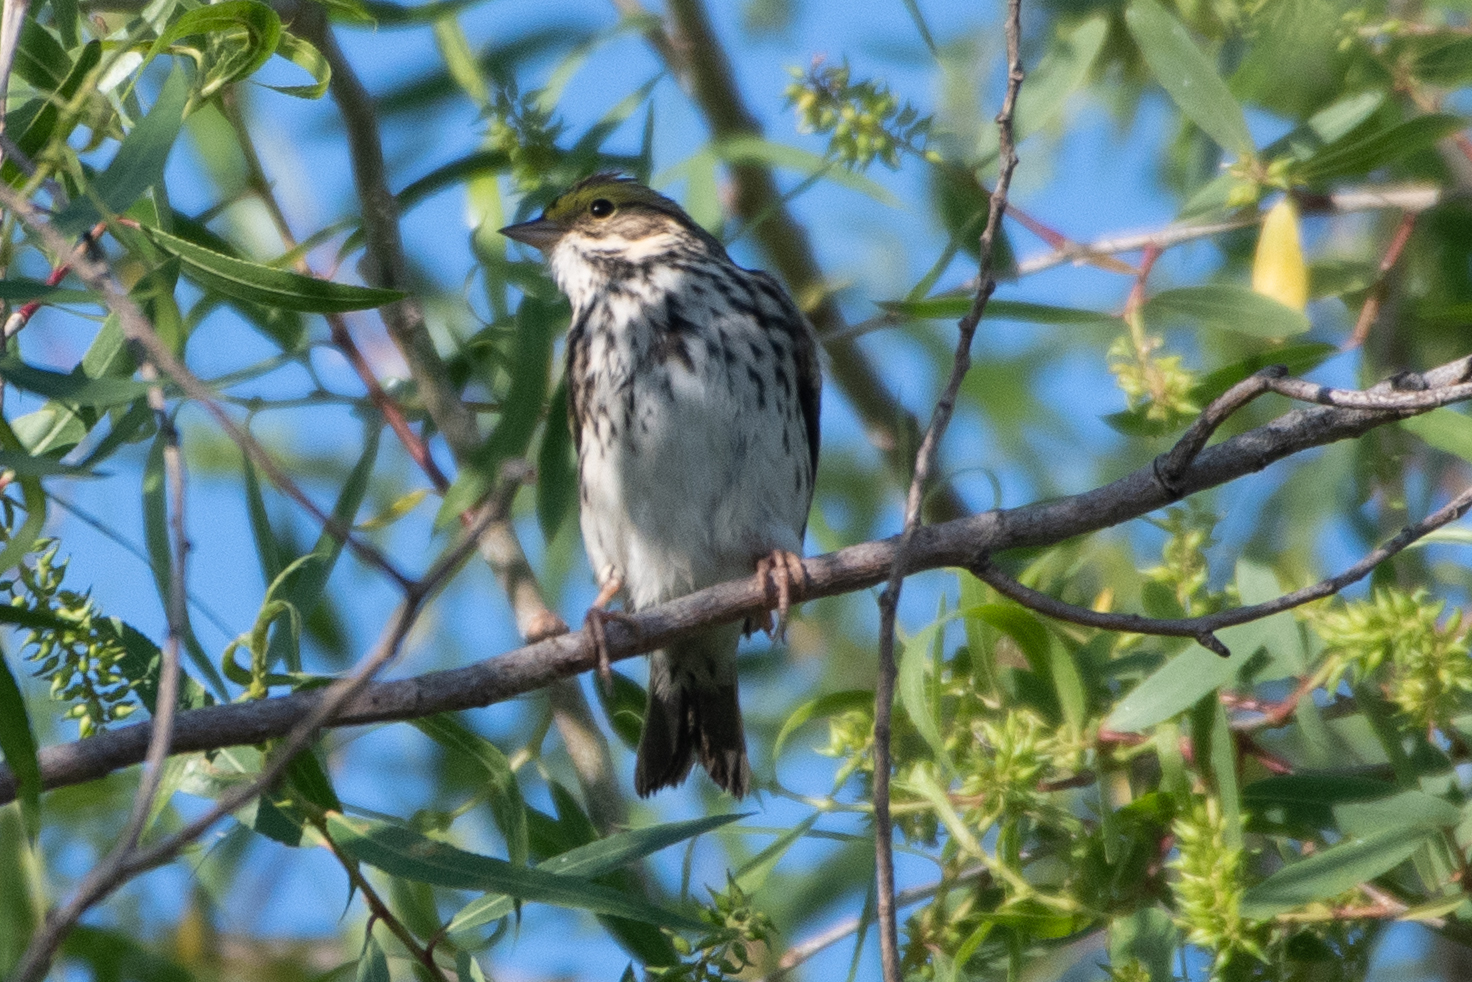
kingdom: Animalia
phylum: Chordata
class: Aves
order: Passeriformes
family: Passerellidae
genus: Passerculus
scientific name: Passerculus sandwichensis
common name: Savannah sparrow
